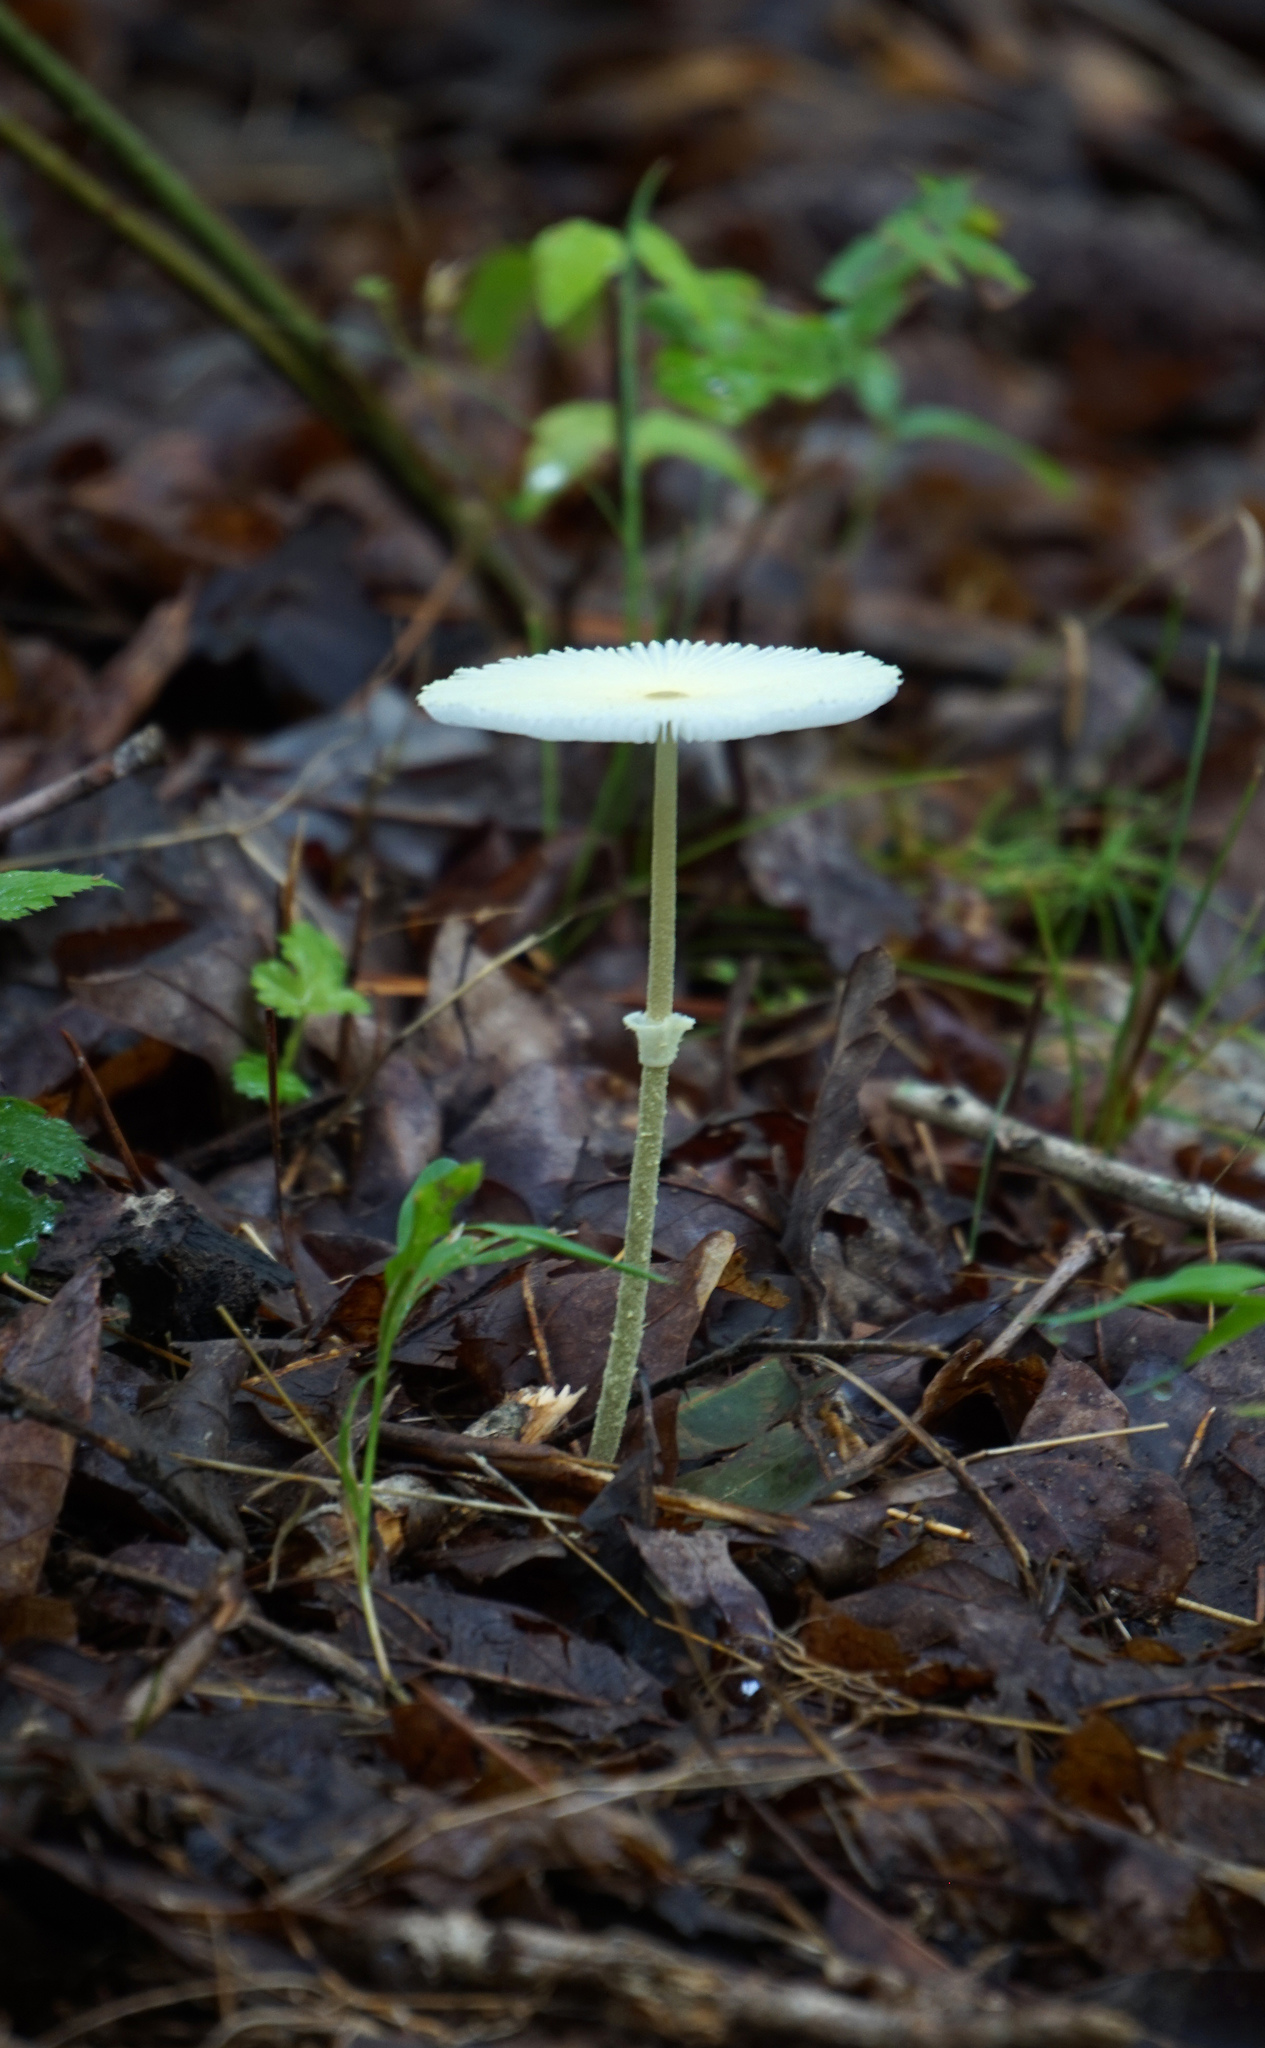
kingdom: Fungi
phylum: Basidiomycota
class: Agaricomycetes
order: Agaricales
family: Agaricaceae
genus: Leucocoprinus
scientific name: Leucocoprinus fragilissimus
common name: Fragile dapperling
